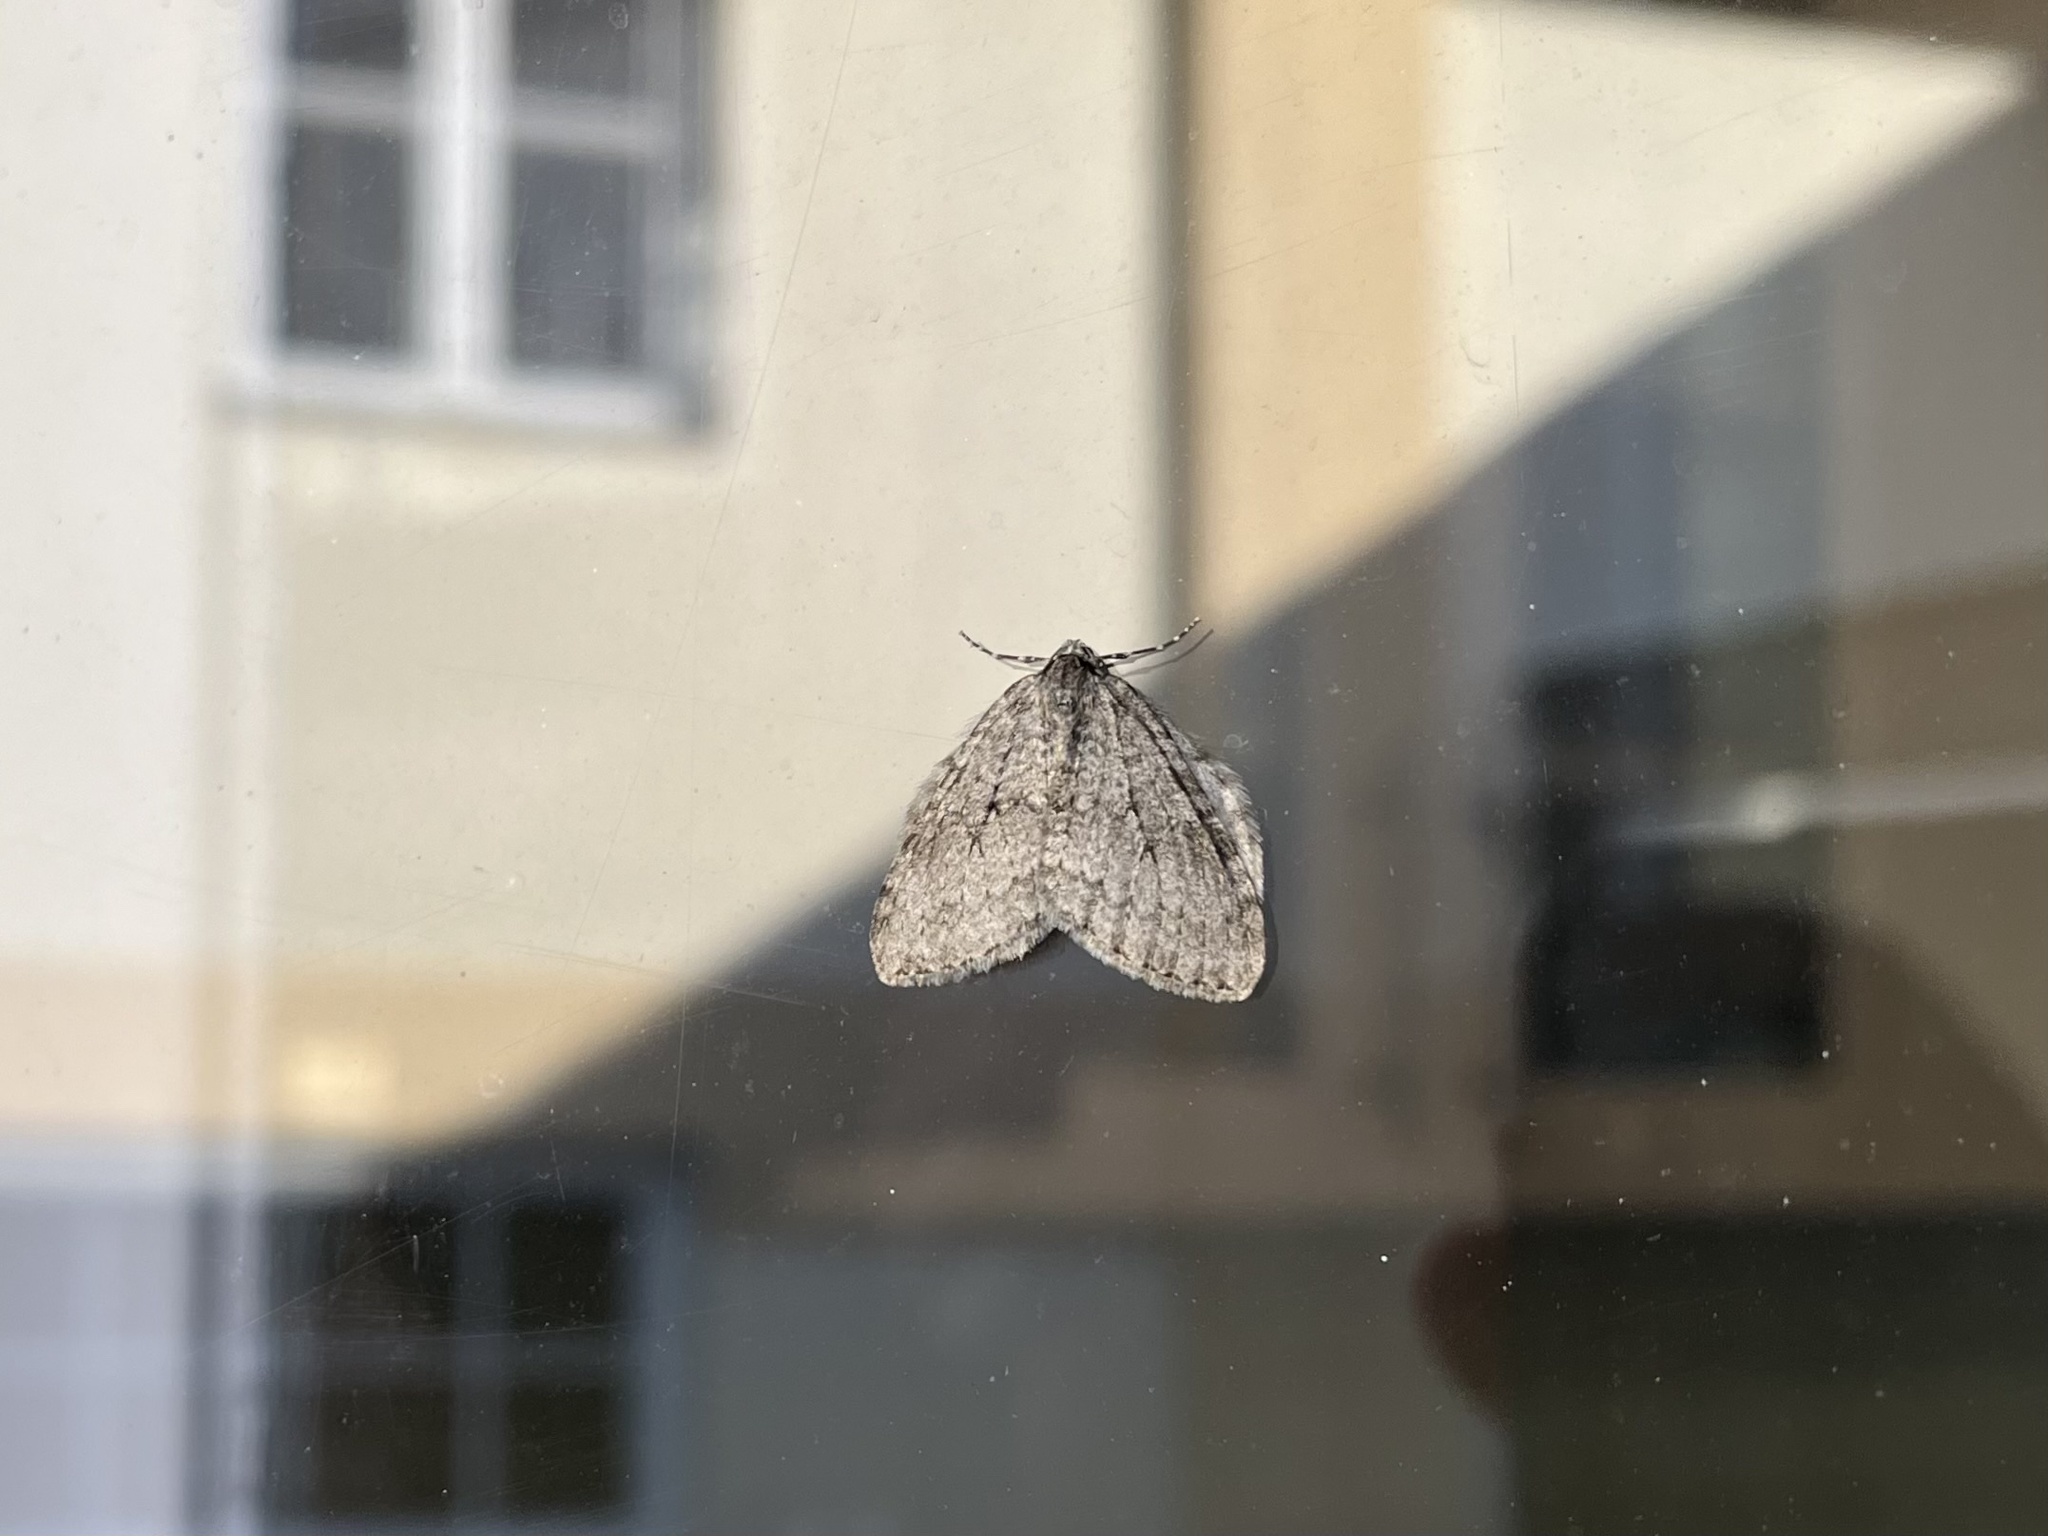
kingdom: Animalia
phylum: Arthropoda
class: Insecta
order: Lepidoptera
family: Geometridae
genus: Epirrita
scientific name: Epirrita dilutata
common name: November moth
